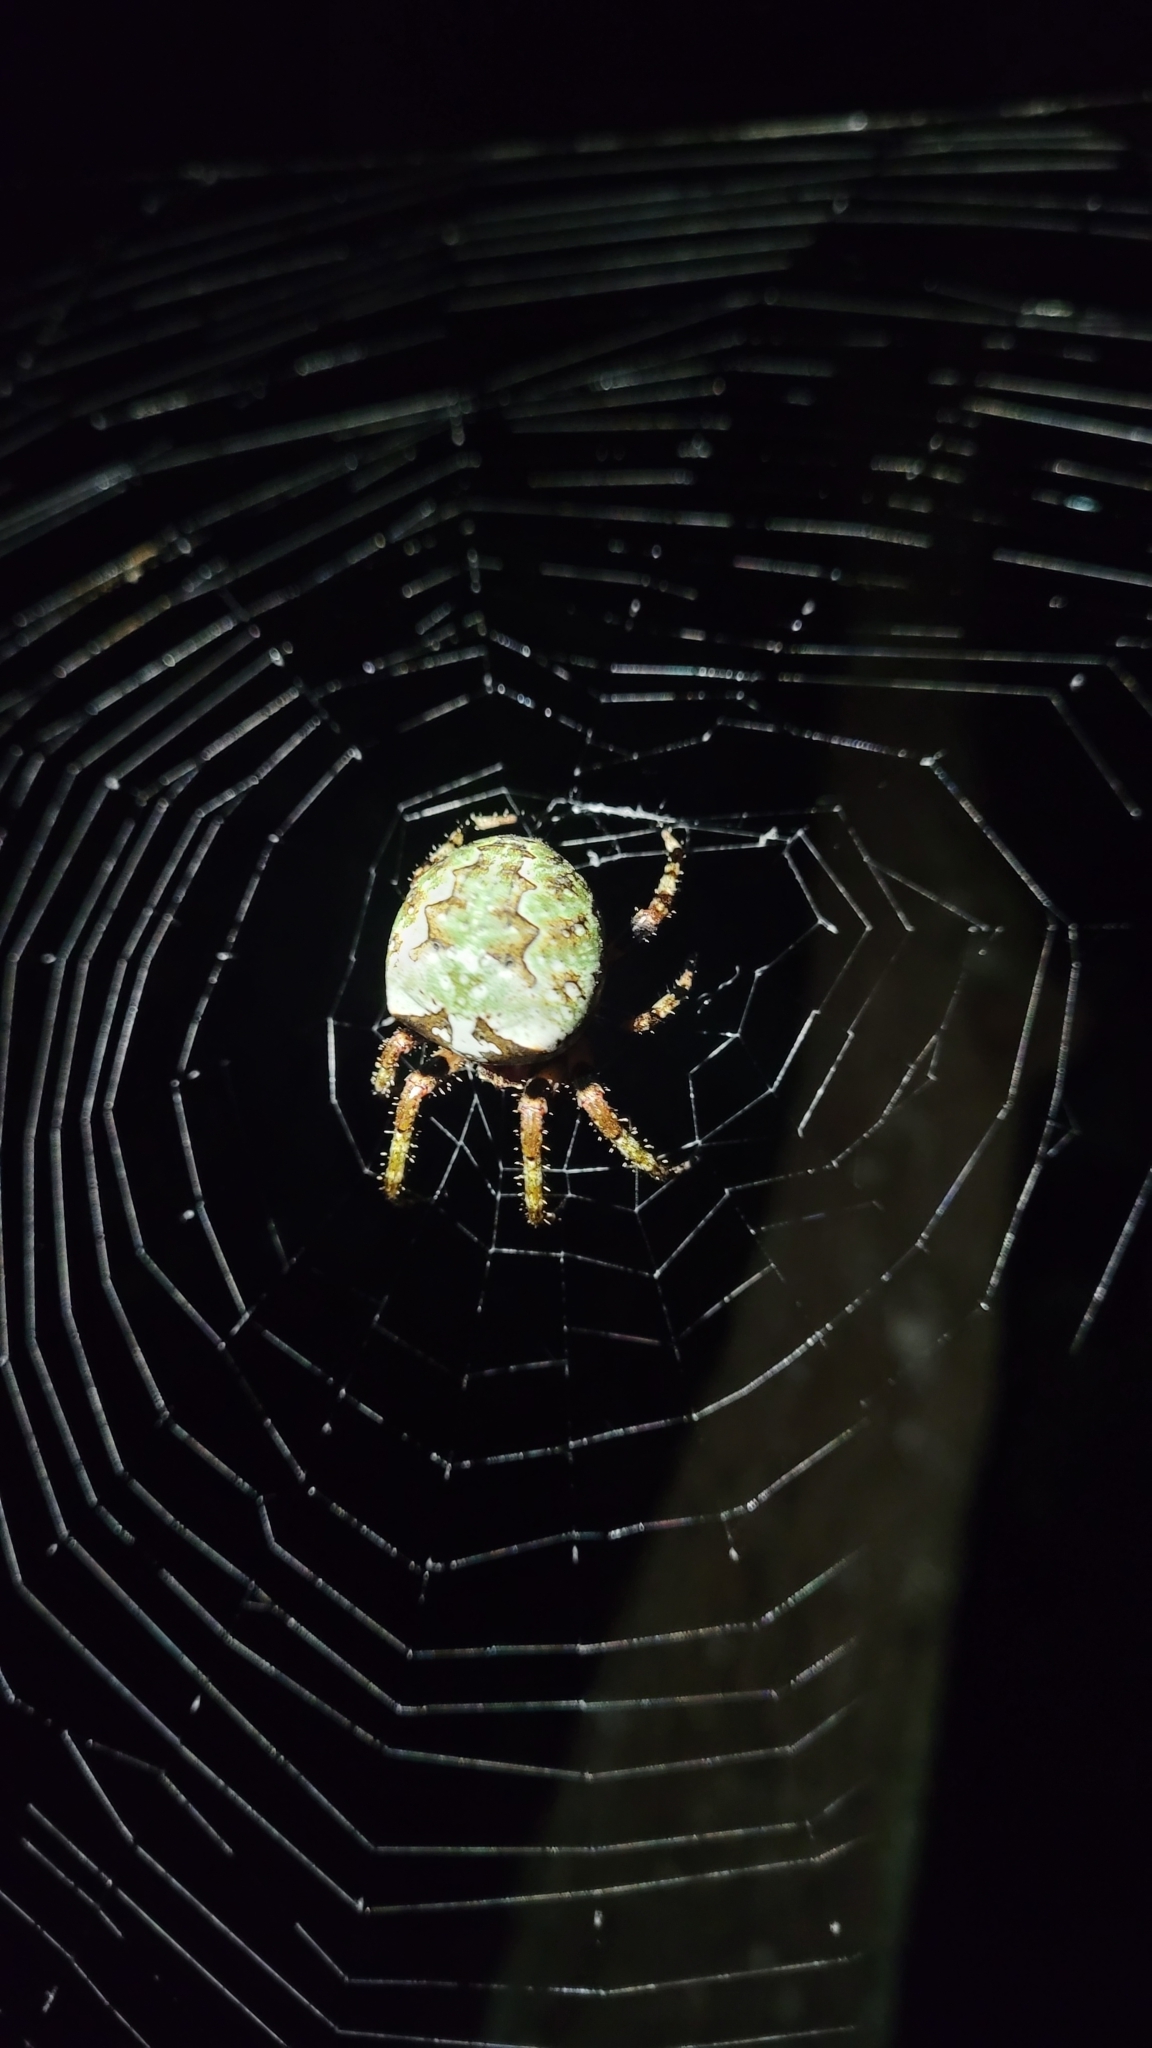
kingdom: Animalia
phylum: Arthropoda
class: Arachnida
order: Araneae
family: Araneidae
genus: Araneus
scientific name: Araneus bicentenarius
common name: Giant lichen orbweaver
